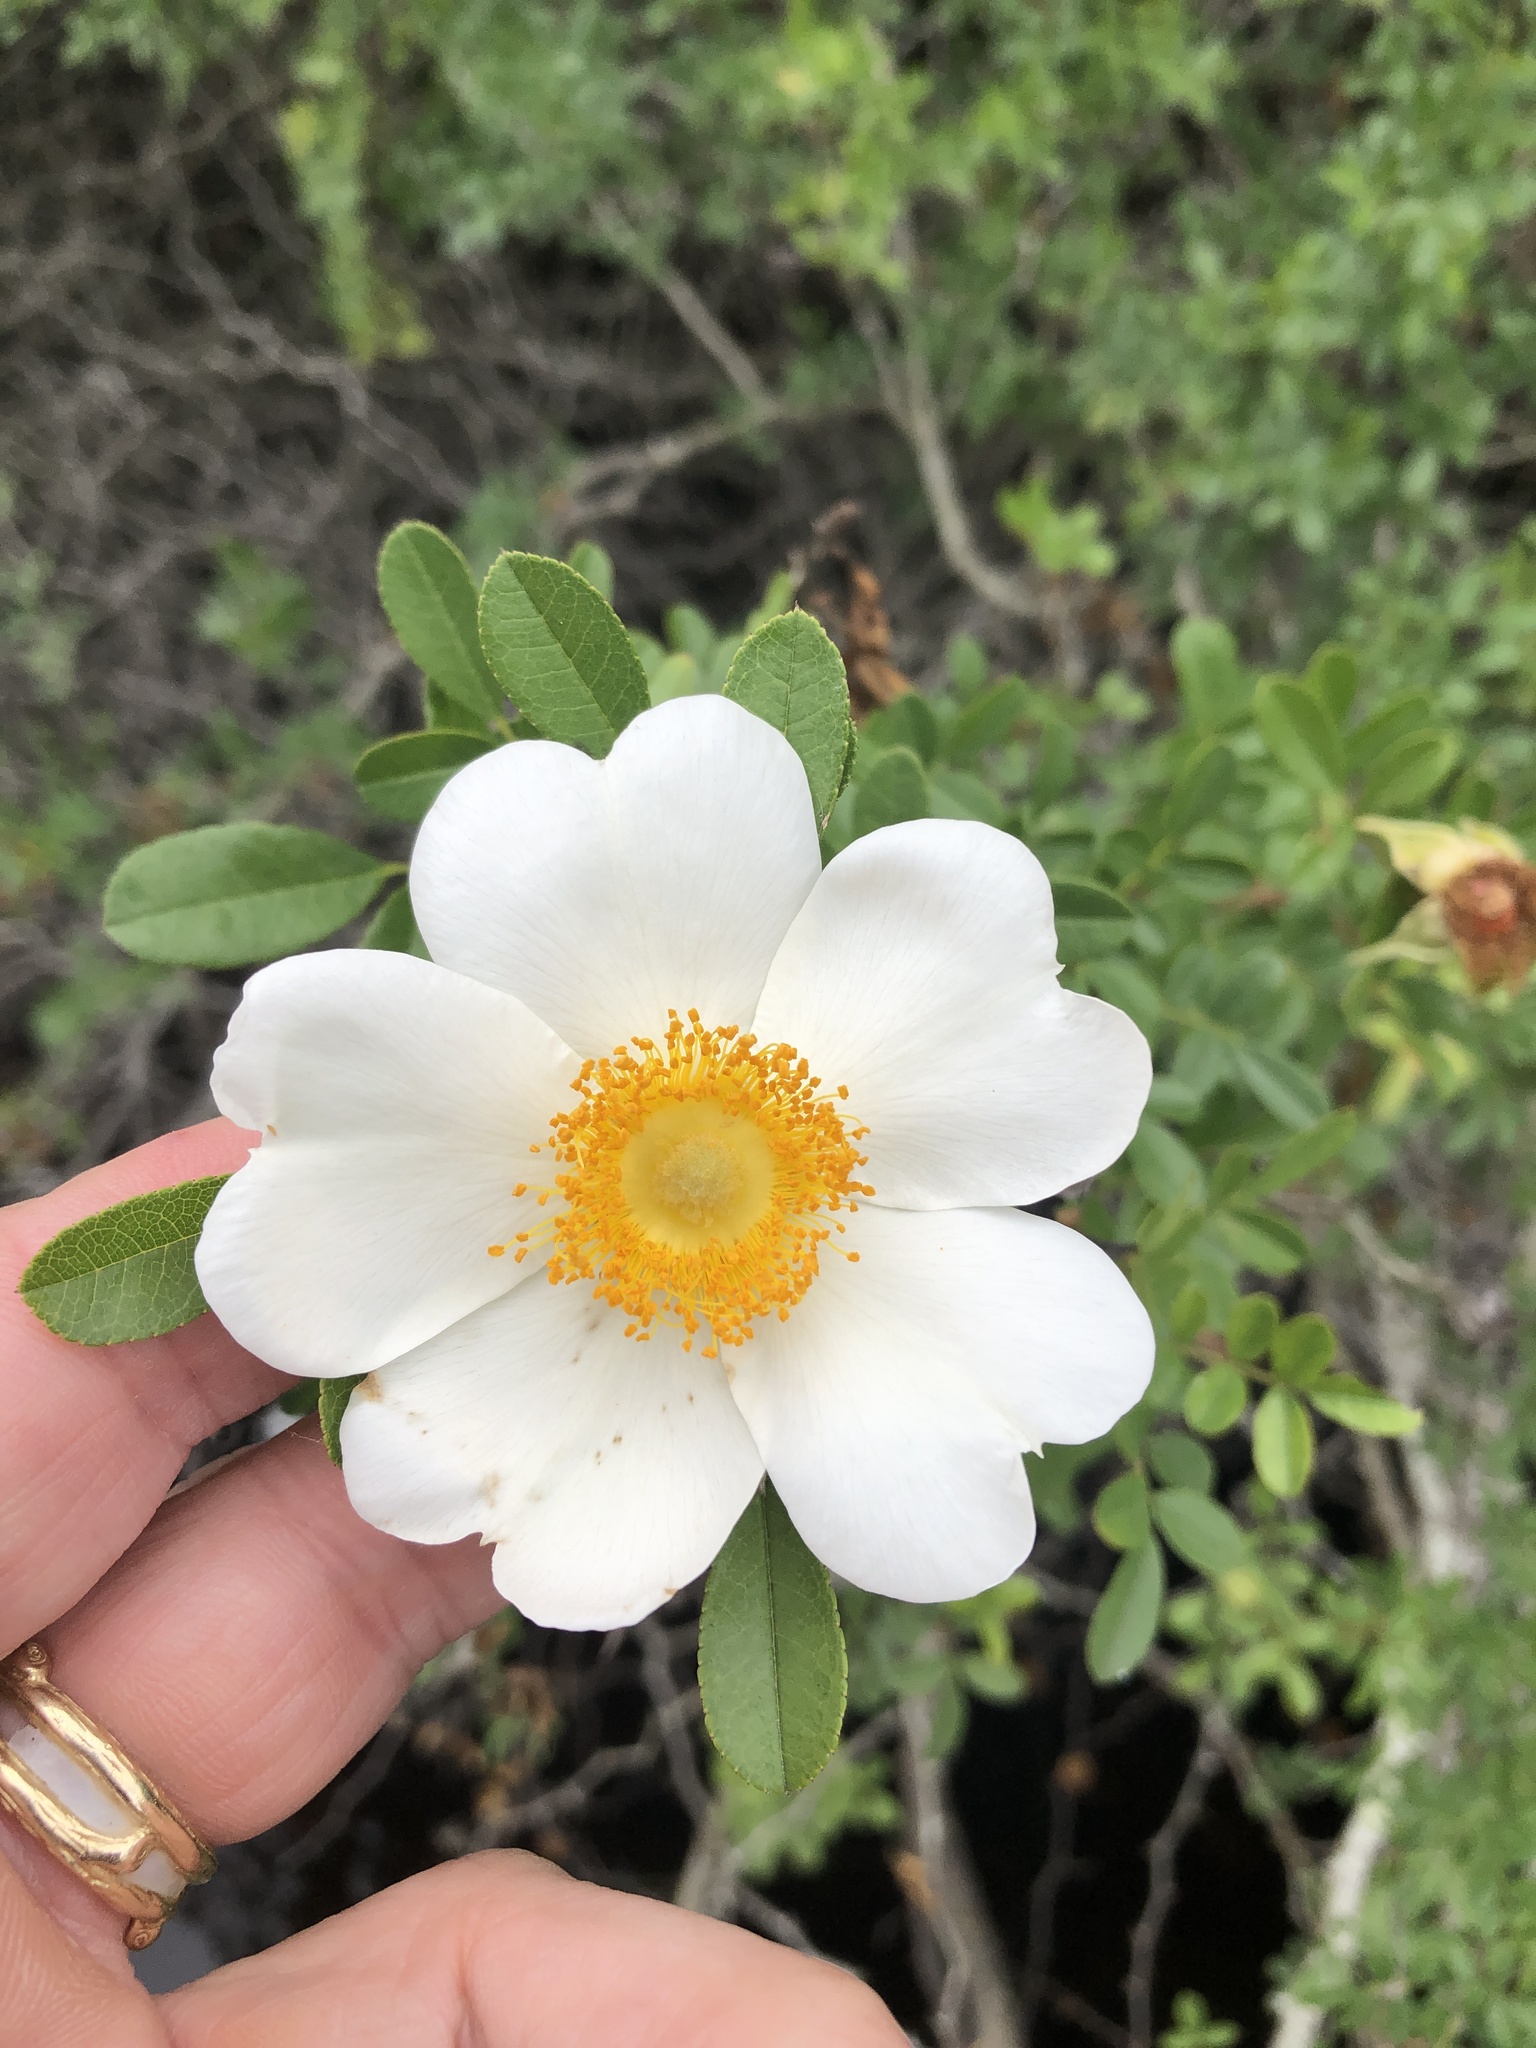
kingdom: Plantae
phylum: Tracheophyta
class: Magnoliopsida
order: Rosales
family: Rosaceae
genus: Rosa
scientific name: Rosa bracteata
